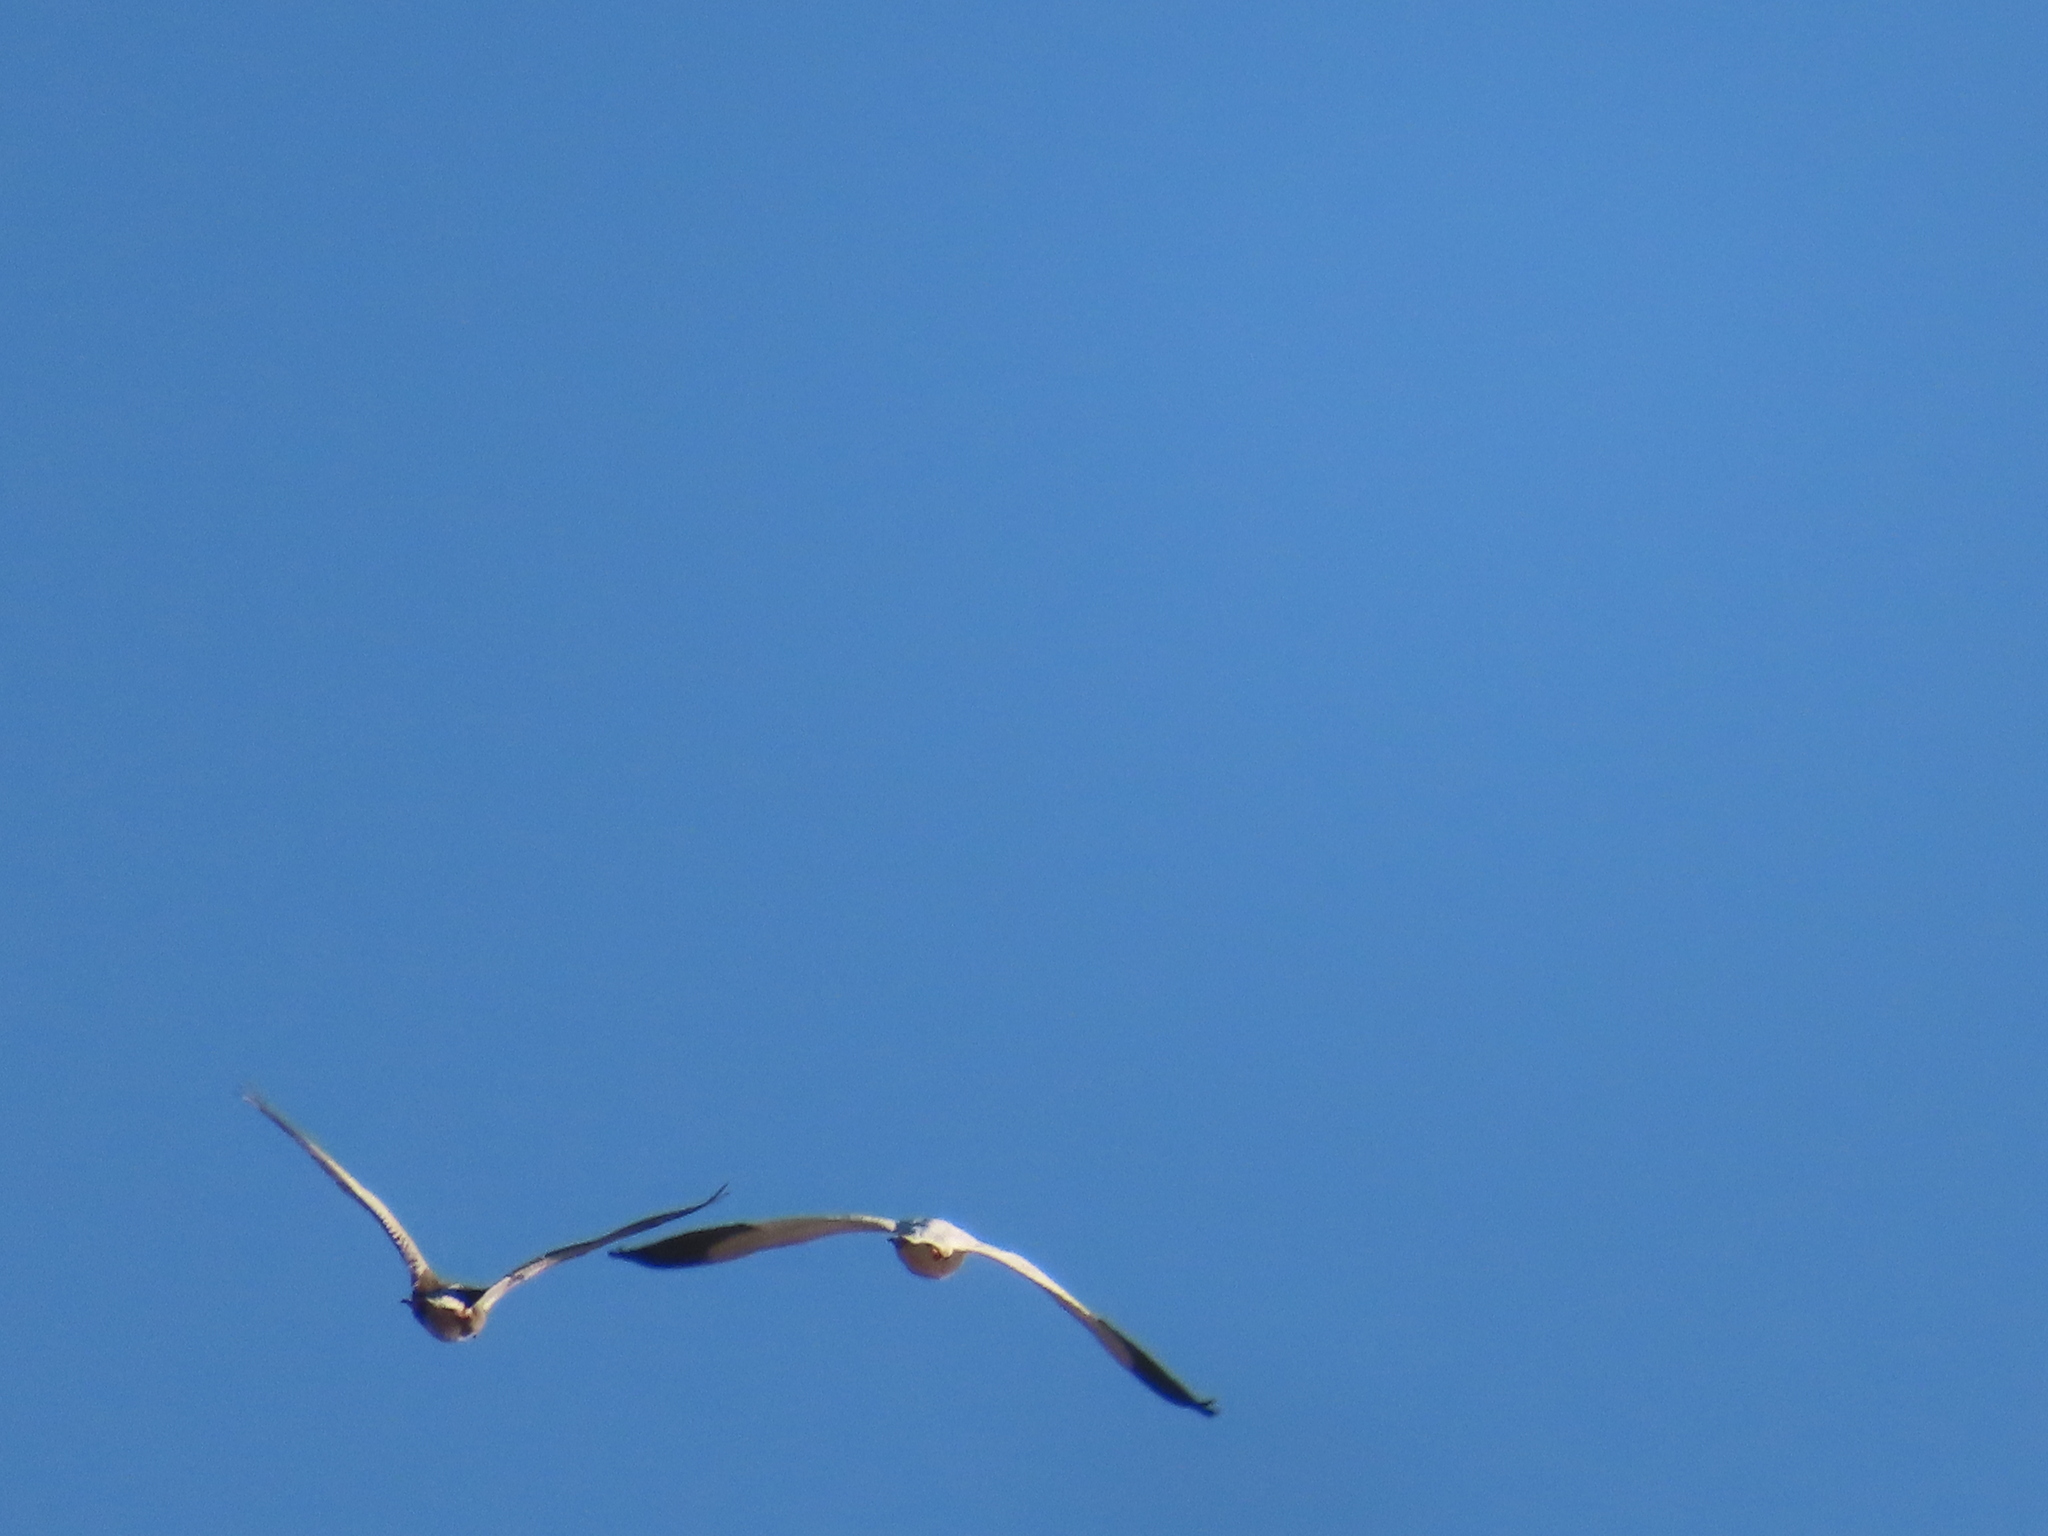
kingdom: Animalia
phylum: Chordata
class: Aves
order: Anseriformes
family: Anatidae
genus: Anser
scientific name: Anser caerulescens
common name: Snow goose
